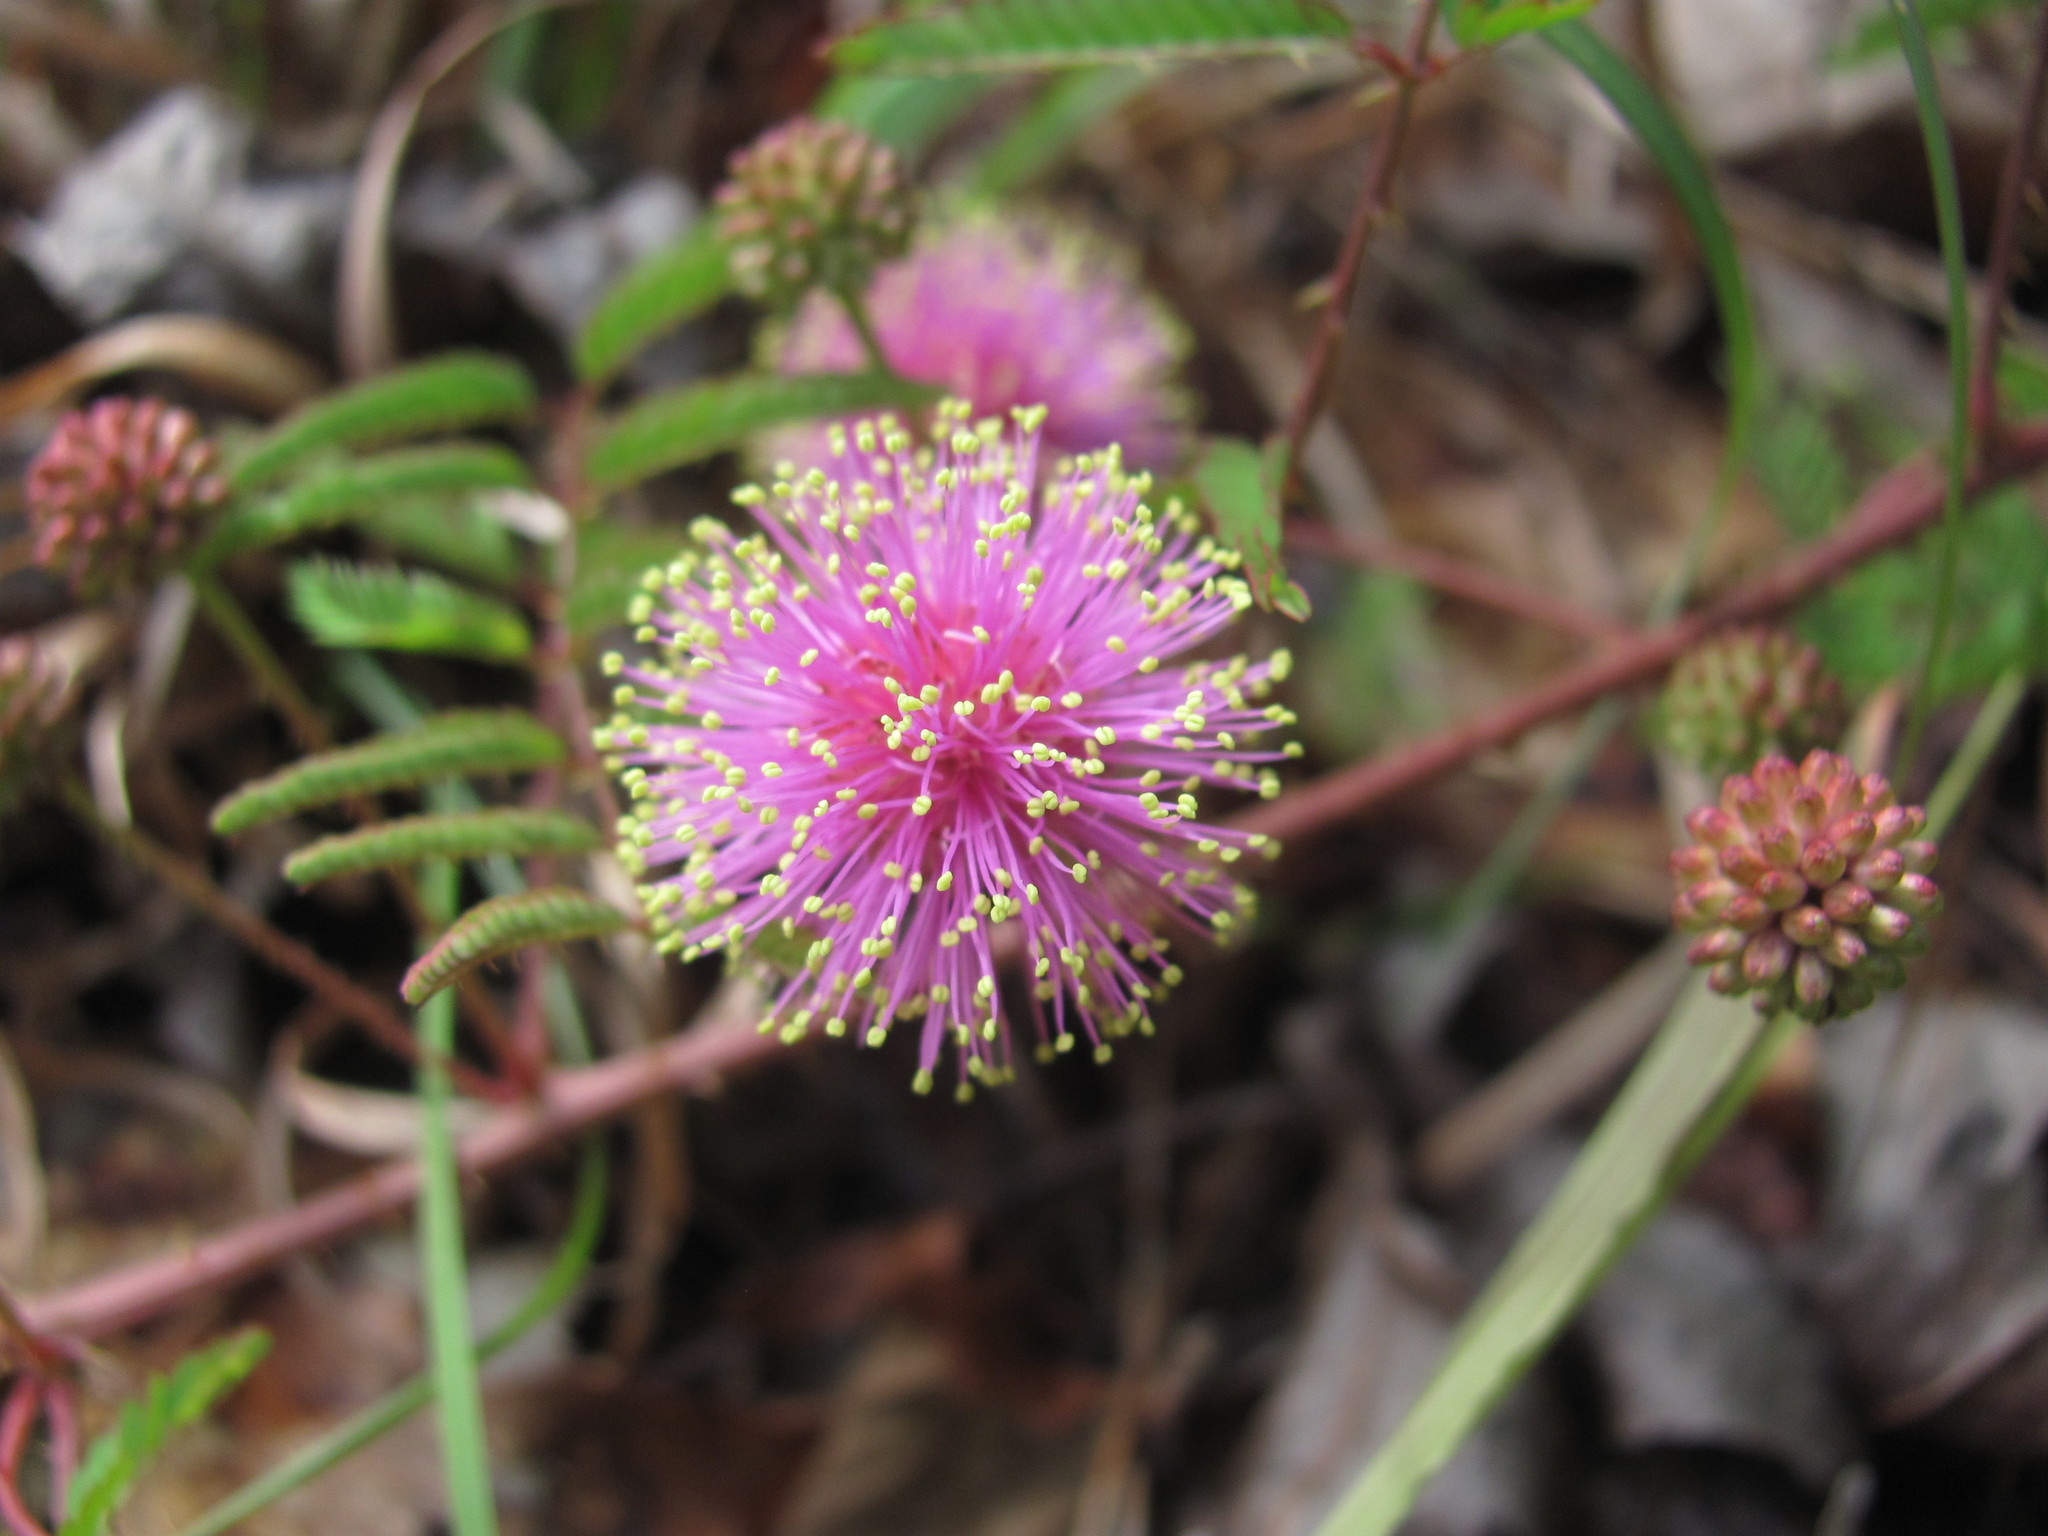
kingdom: Plantae
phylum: Tracheophyta
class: Magnoliopsida
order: Fabales
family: Fabaceae
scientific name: Fabaceae
